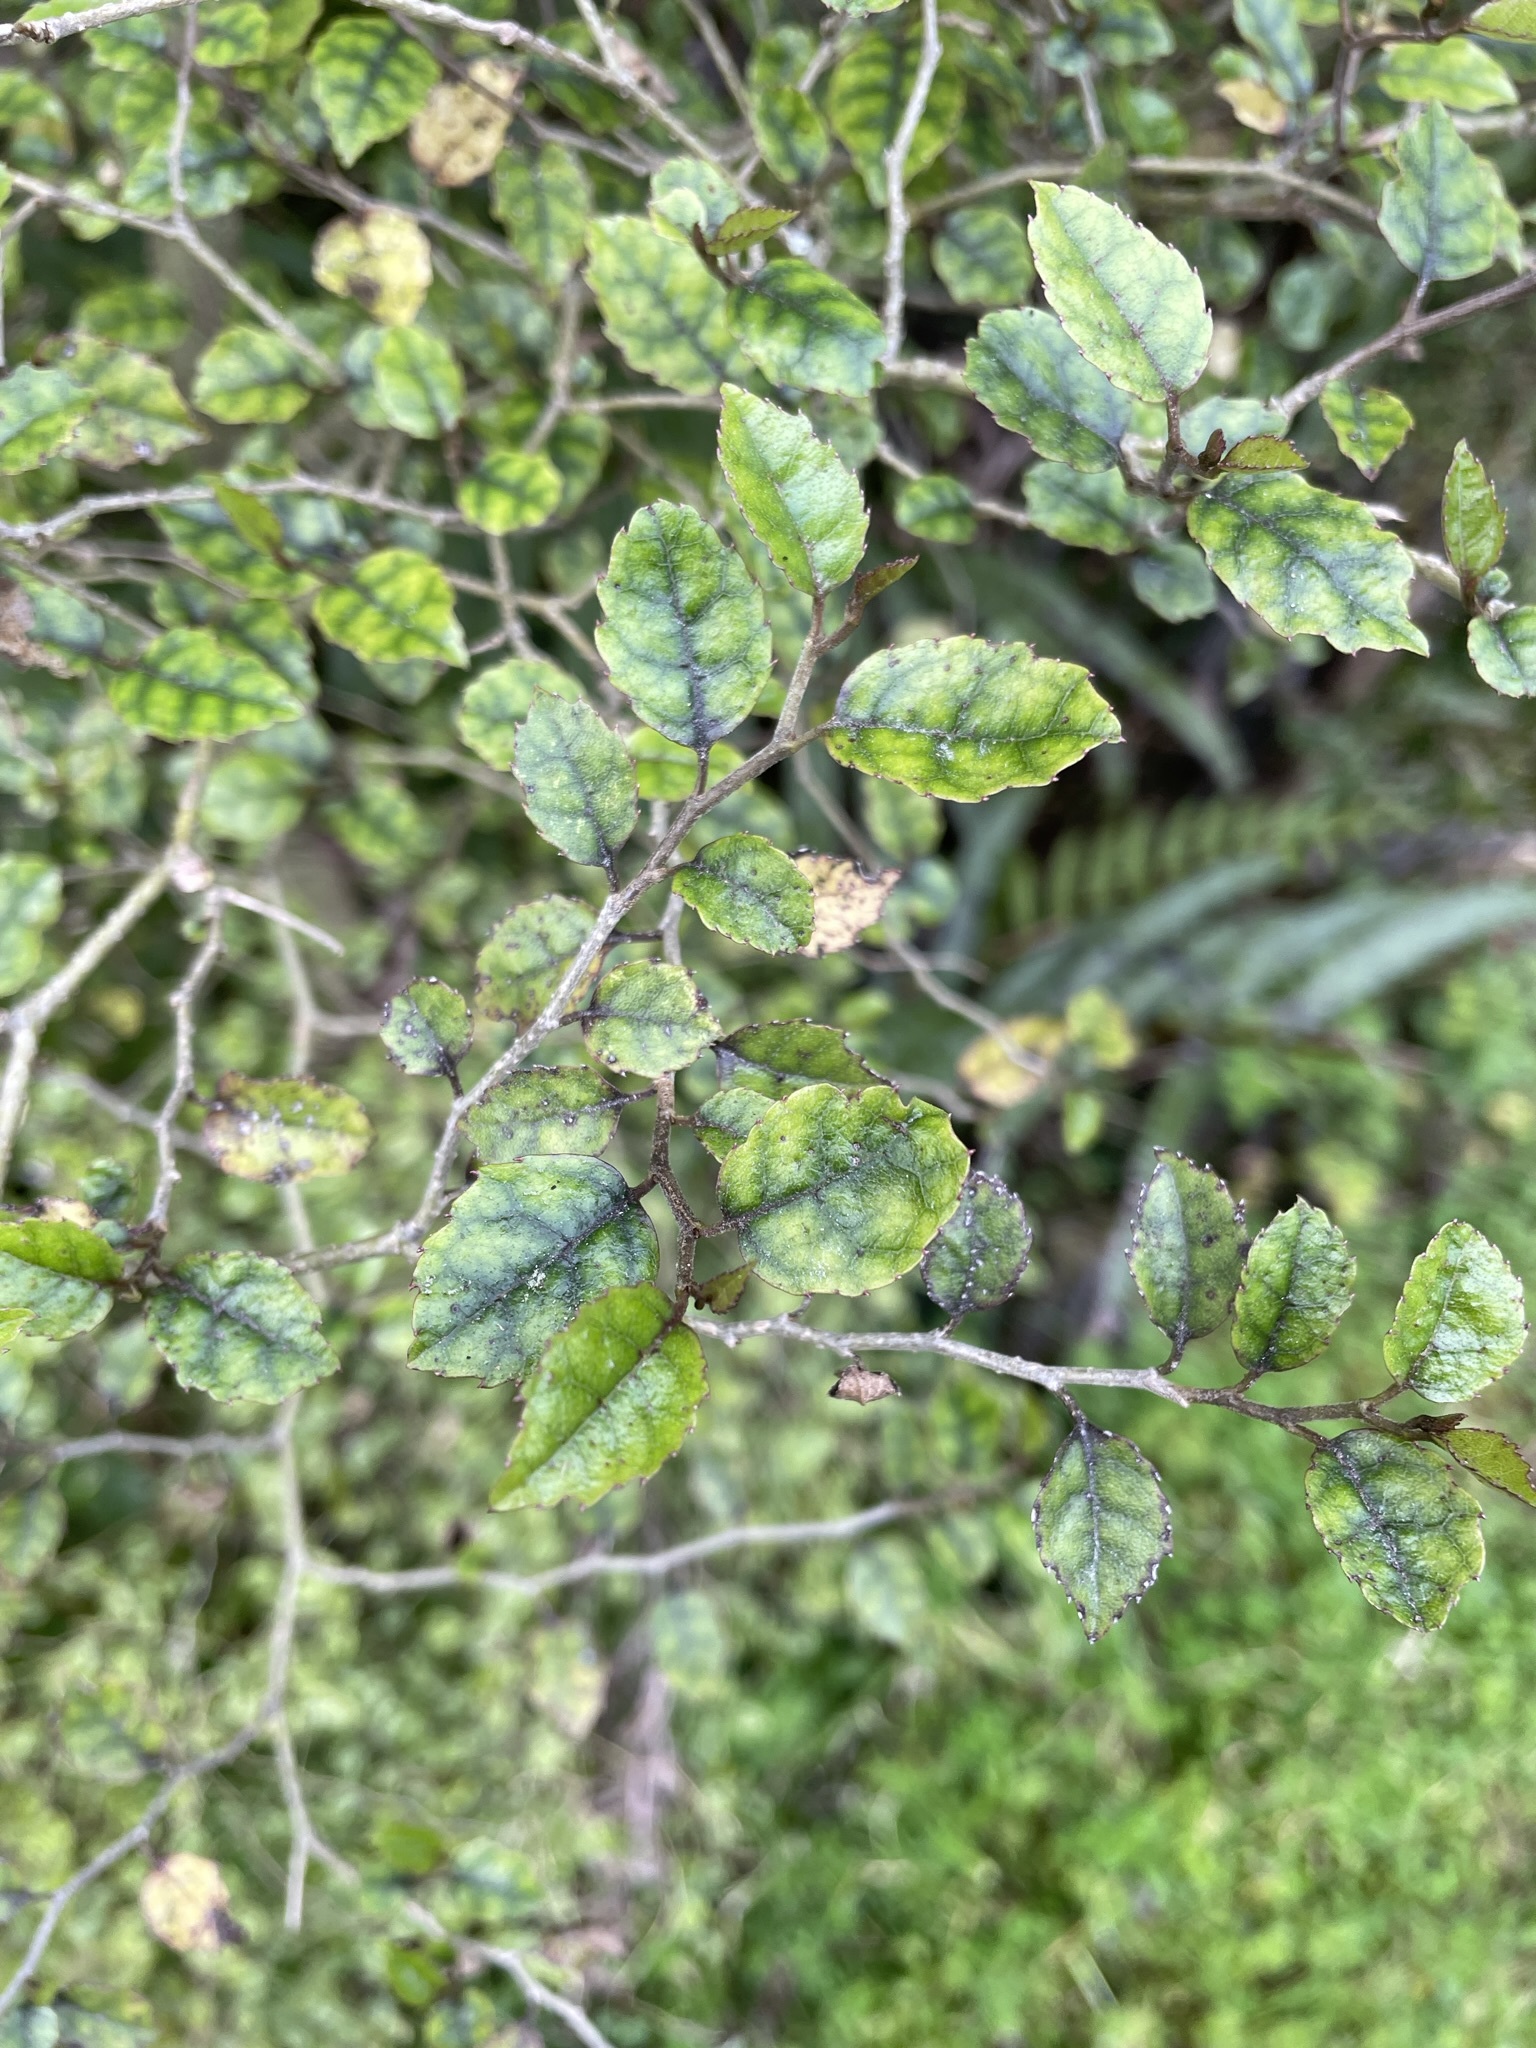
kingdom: Plantae
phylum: Tracheophyta
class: Magnoliopsida
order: Asterales
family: Rousseaceae
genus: Carpodetus
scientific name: Carpodetus serratus
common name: White mapau
